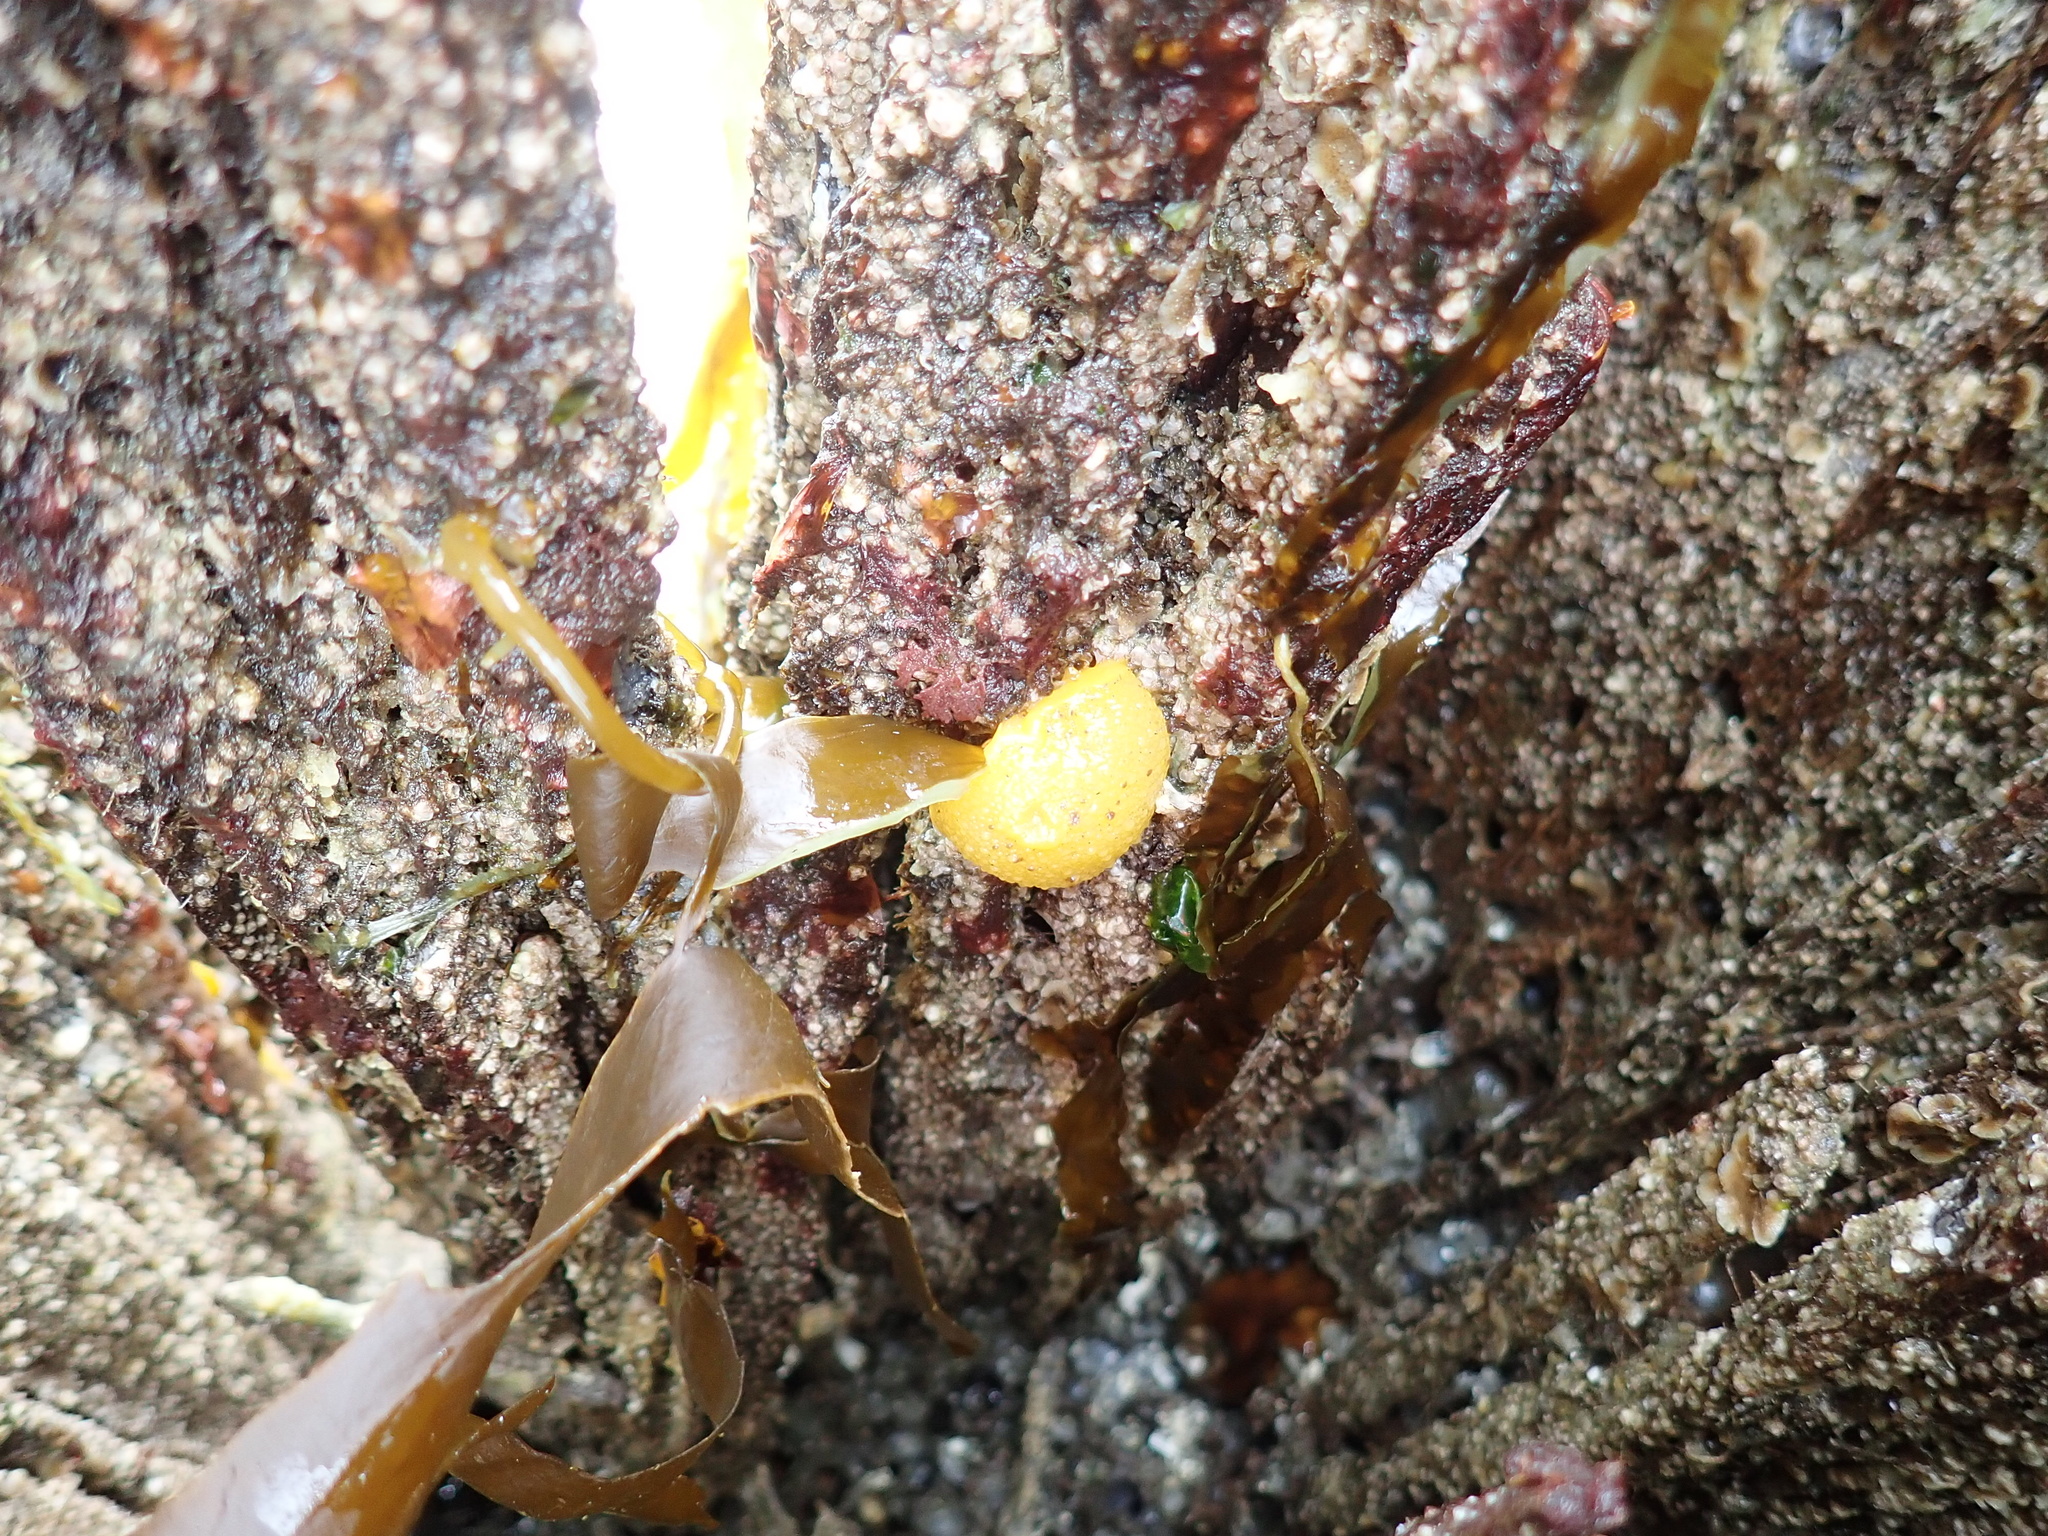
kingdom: Animalia
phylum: Mollusca
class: Gastropoda
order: Nudibranchia
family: Dorididae
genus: Doris
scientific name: Doris montereyensis
